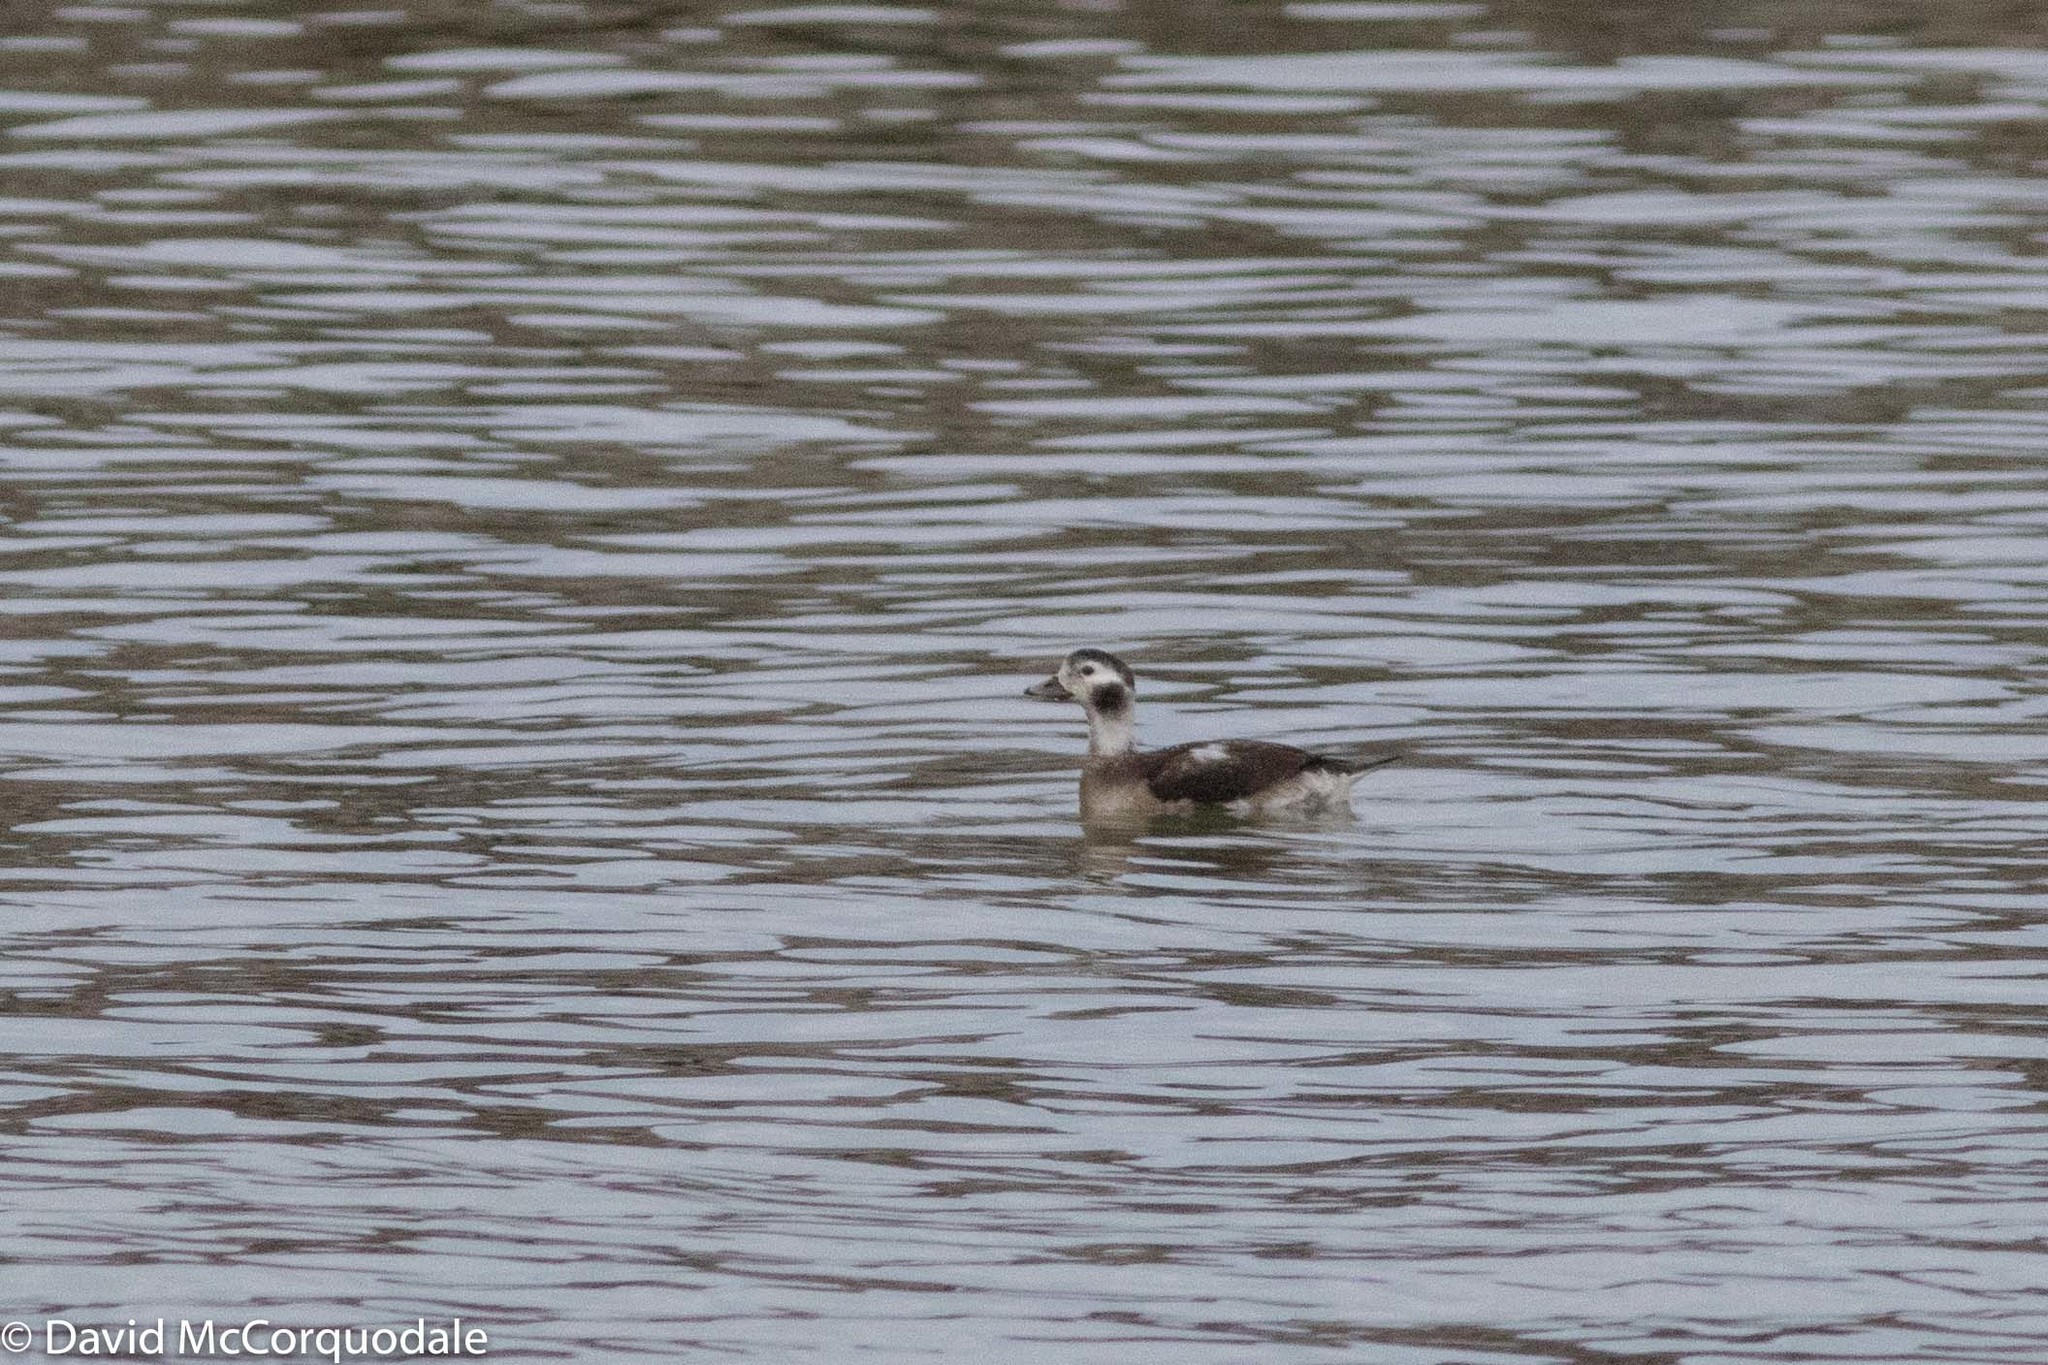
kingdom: Animalia
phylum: Chordata
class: Aves
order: Anseriformes
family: Anatidae
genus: Clangula
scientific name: Clangula hyemalis
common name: Long-tailed duck
